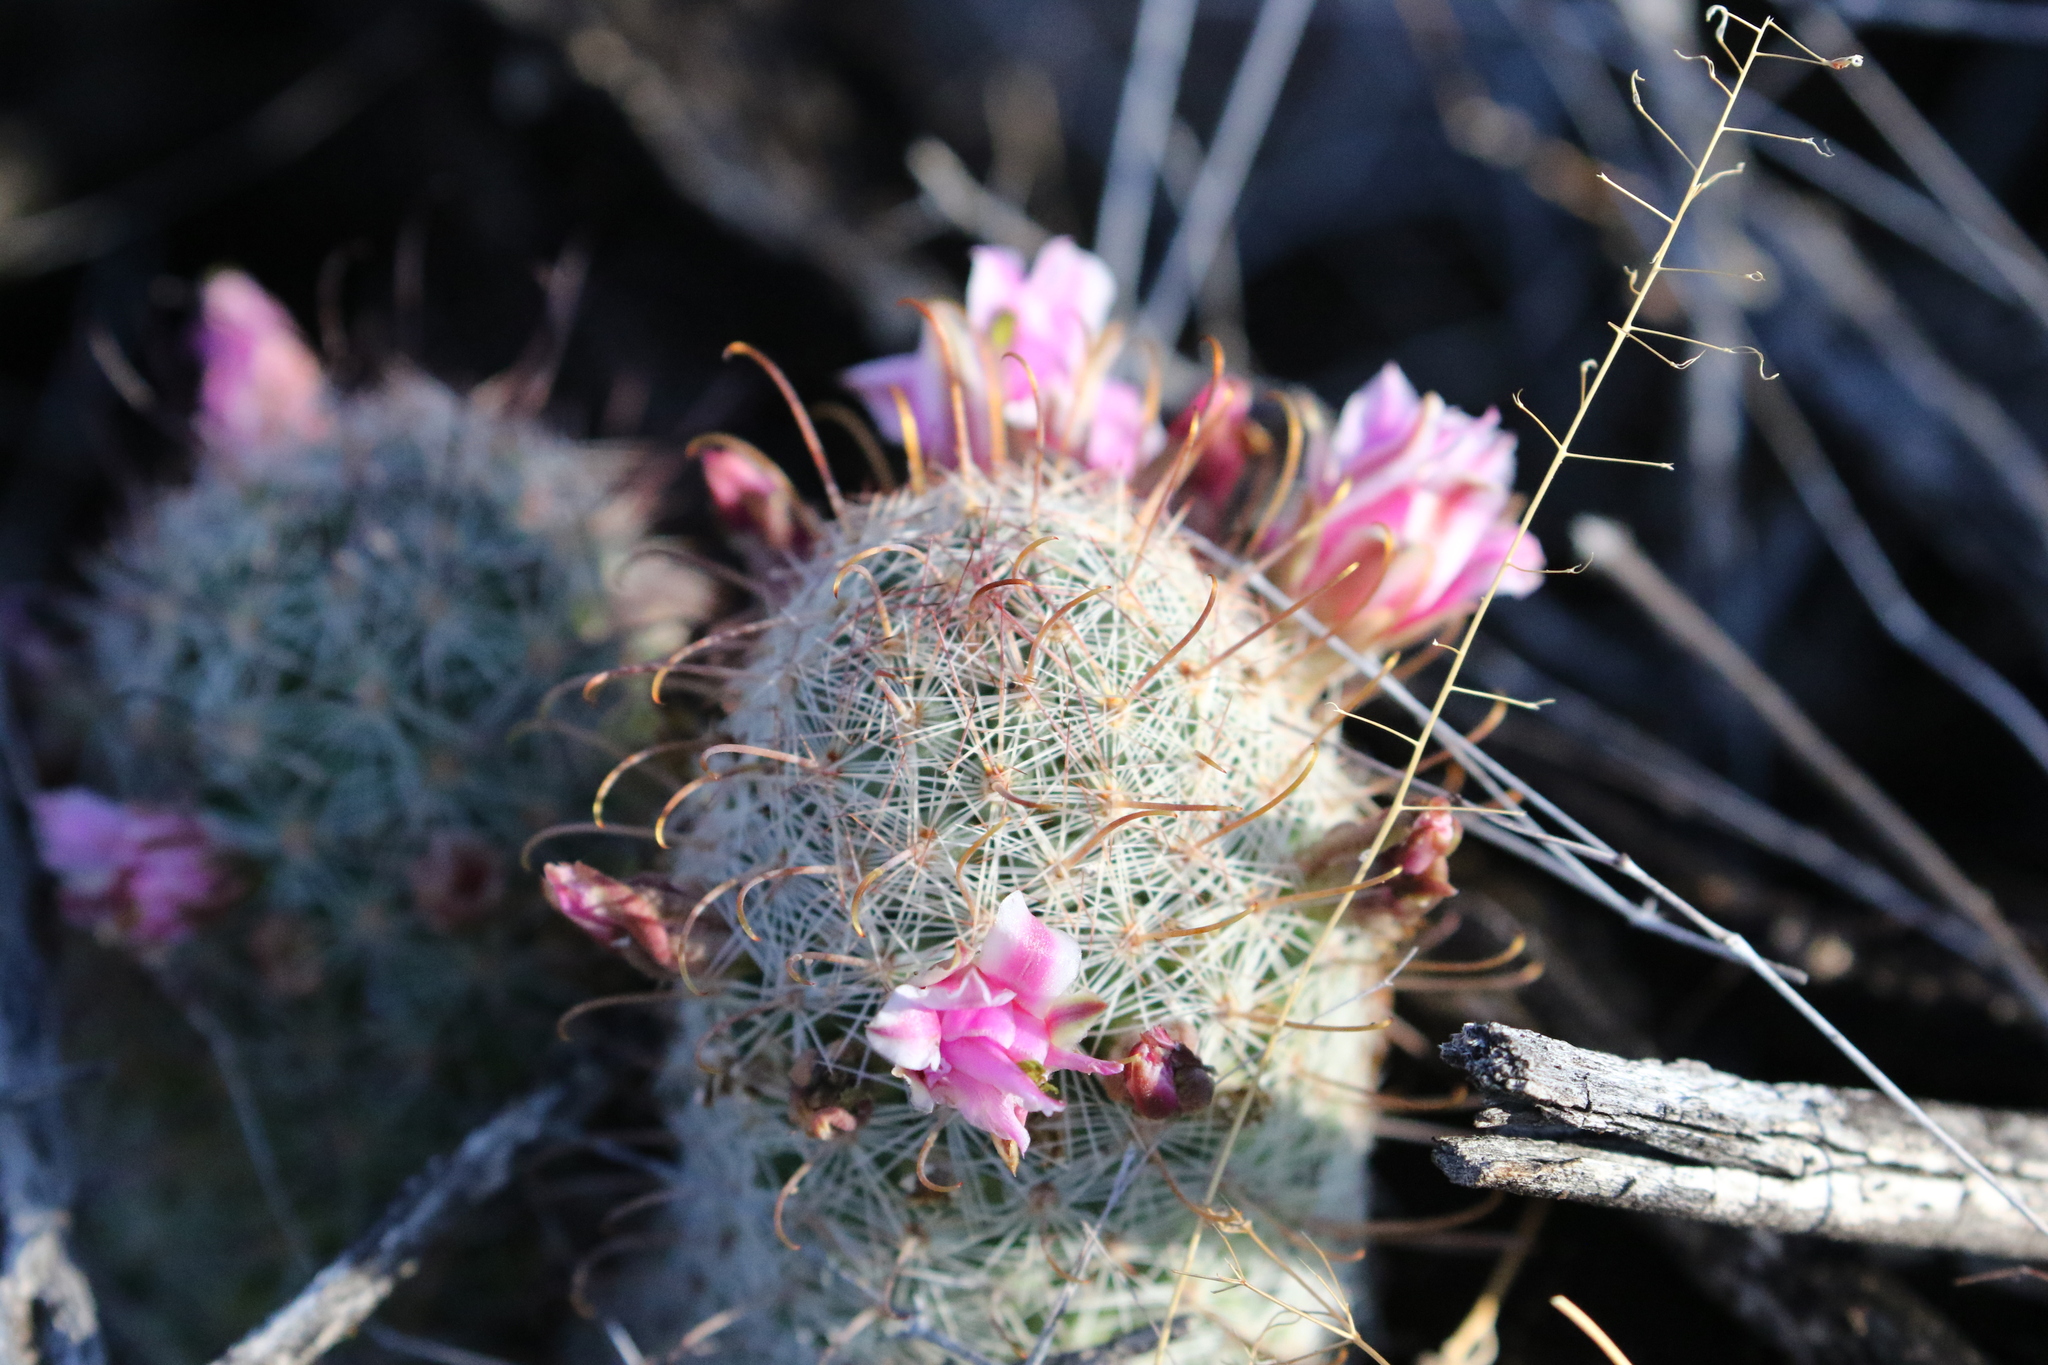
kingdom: Plantae
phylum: Tracheophyta
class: Magnoliopsida
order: Caryophyllales
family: Cactaceae
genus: Cochemiea
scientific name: Cochemiea grahamii
